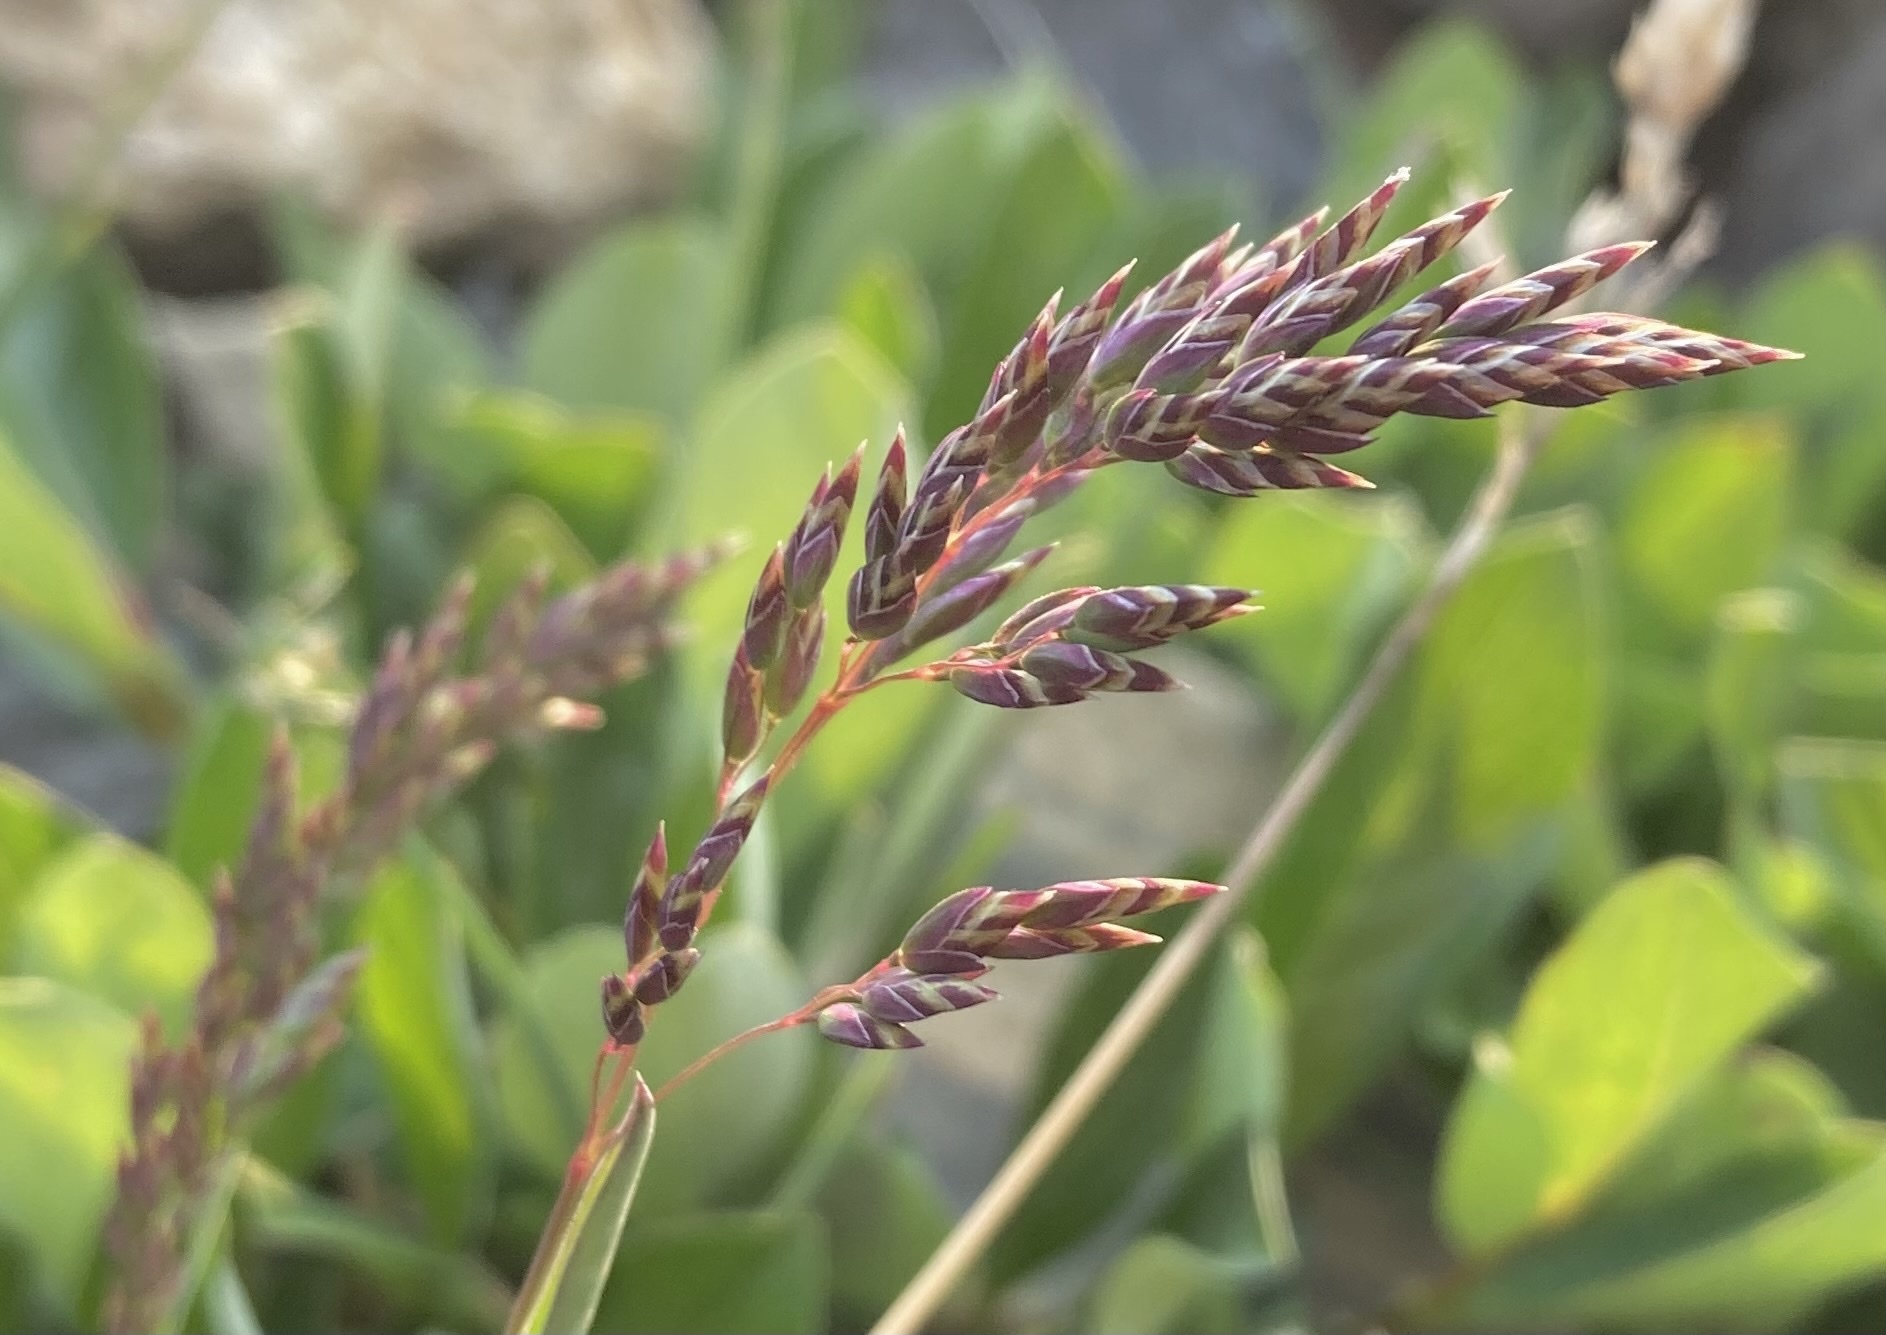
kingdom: Plantae
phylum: Tracheophyta
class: Liliopsida
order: Poales
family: Poaceae
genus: Poa
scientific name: Poa alpina
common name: Alpine bluegrass
